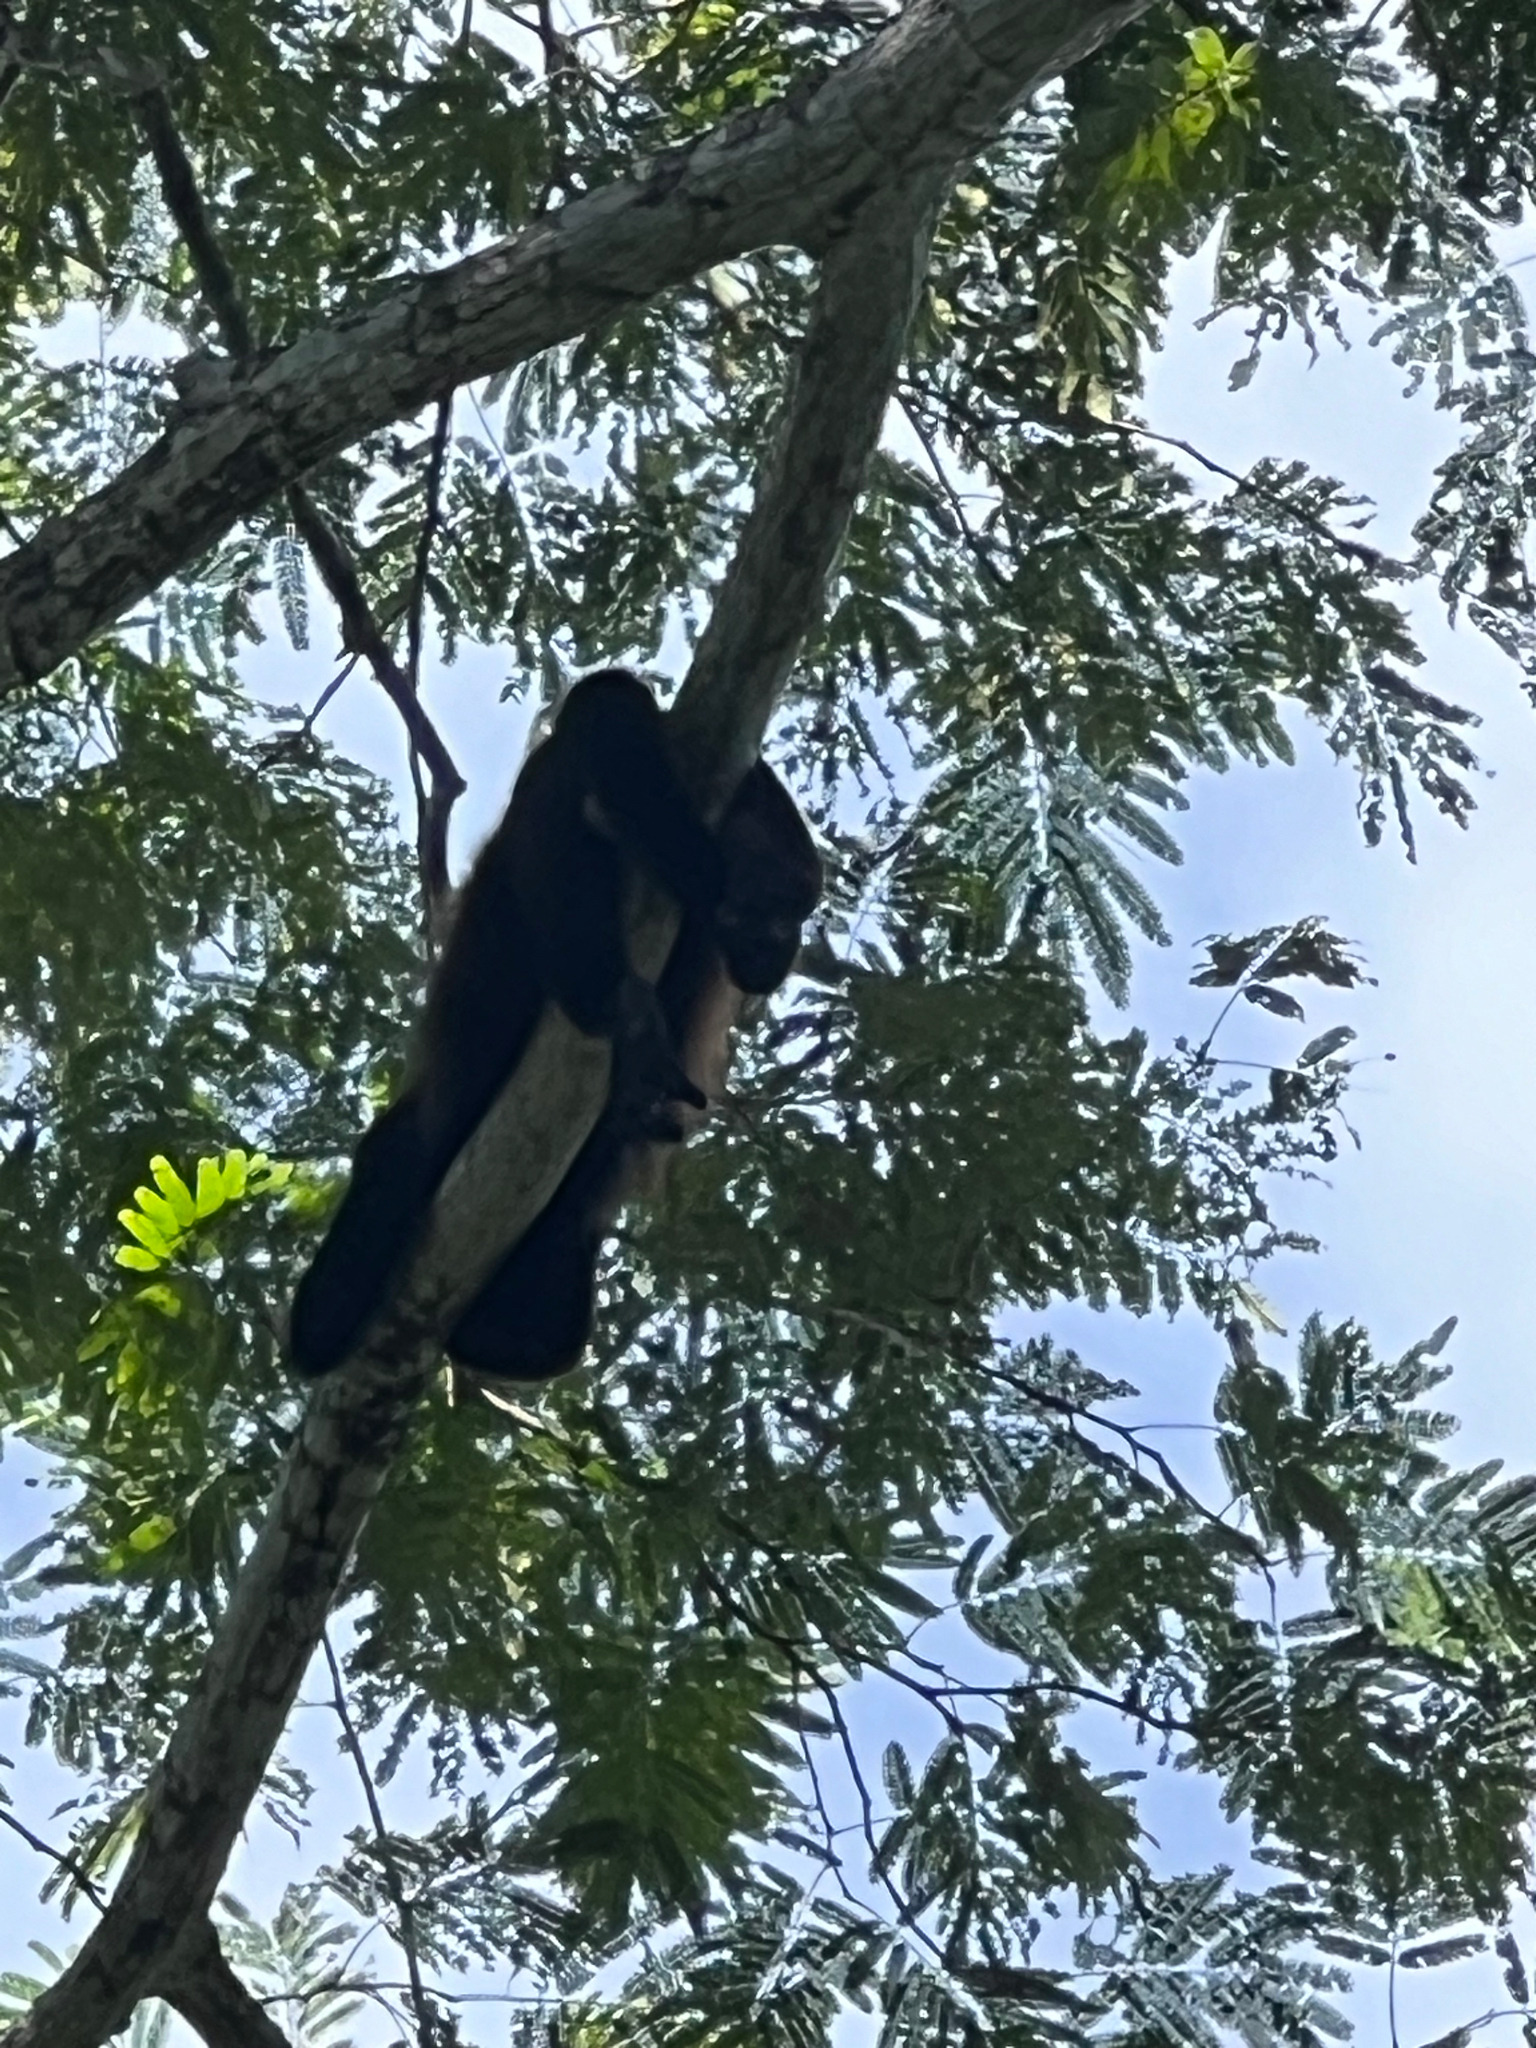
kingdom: Animalia
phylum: Chordata
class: Mammalia
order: Primates
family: Atelidae
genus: Alouatta
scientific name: Alouatta palliata
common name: Mantled howler
